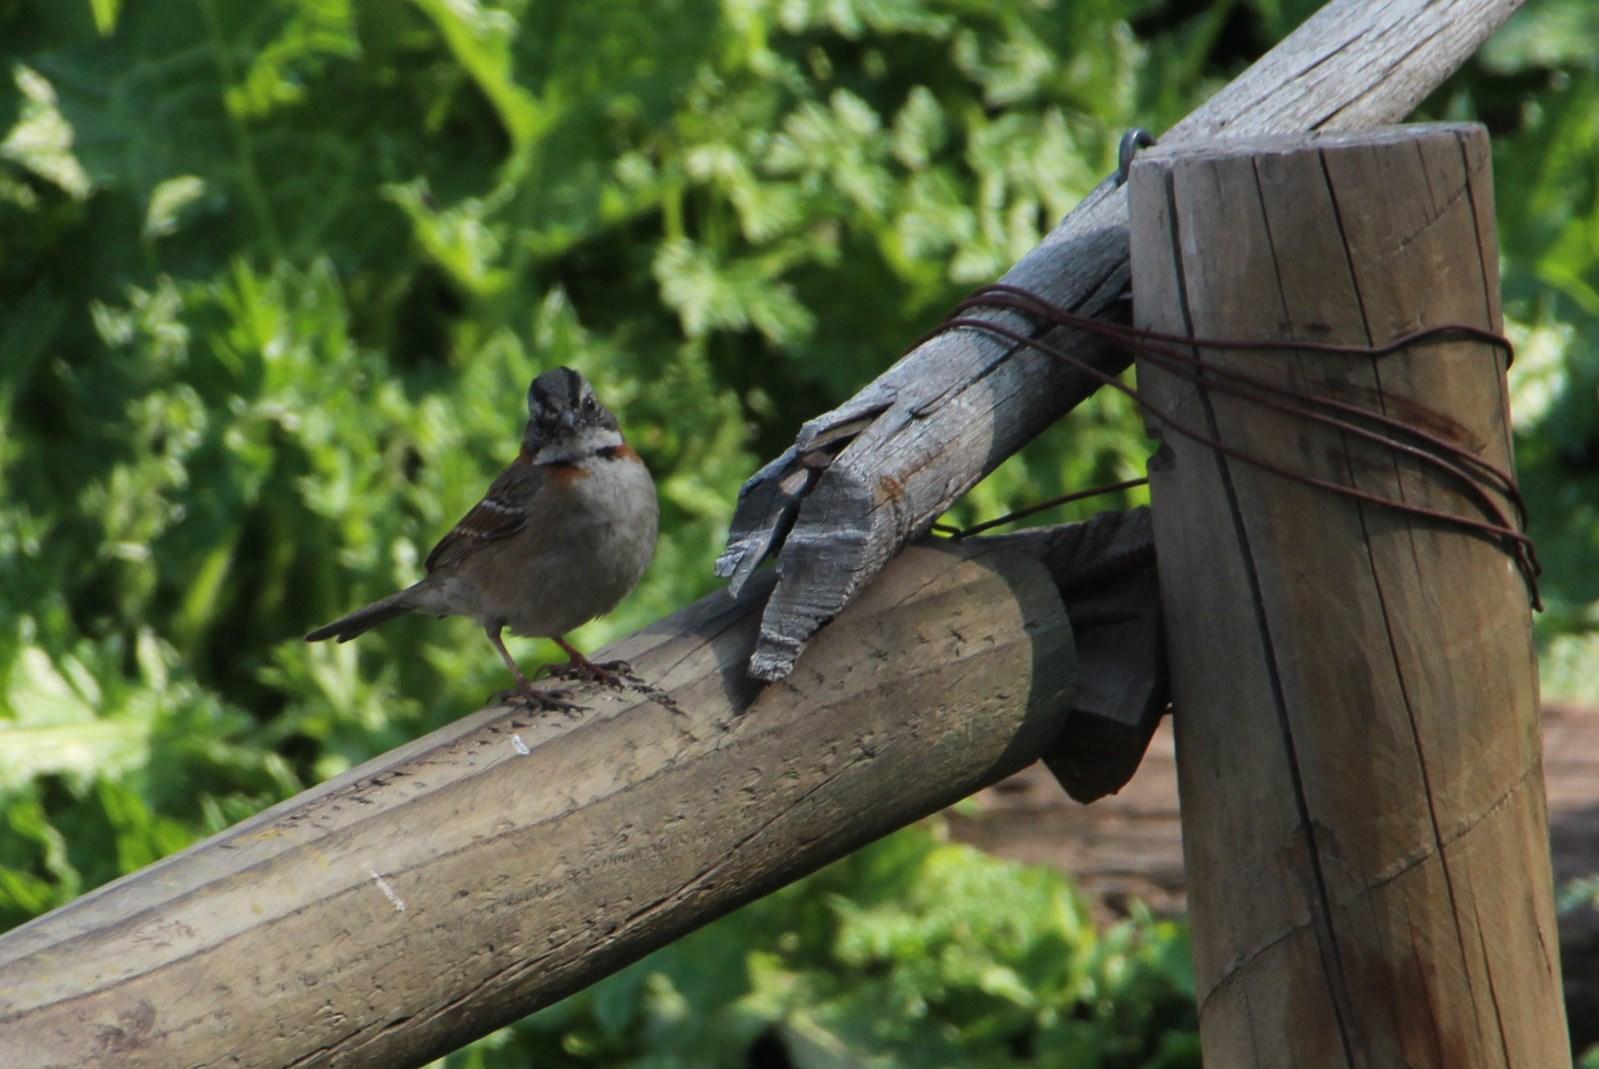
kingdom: Animalia
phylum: Chordata
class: Aves
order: Passeriformes
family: Passerellidae
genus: Zonotrichia
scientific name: Zonotrichia capensis
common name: Rufous-collared sparrow
